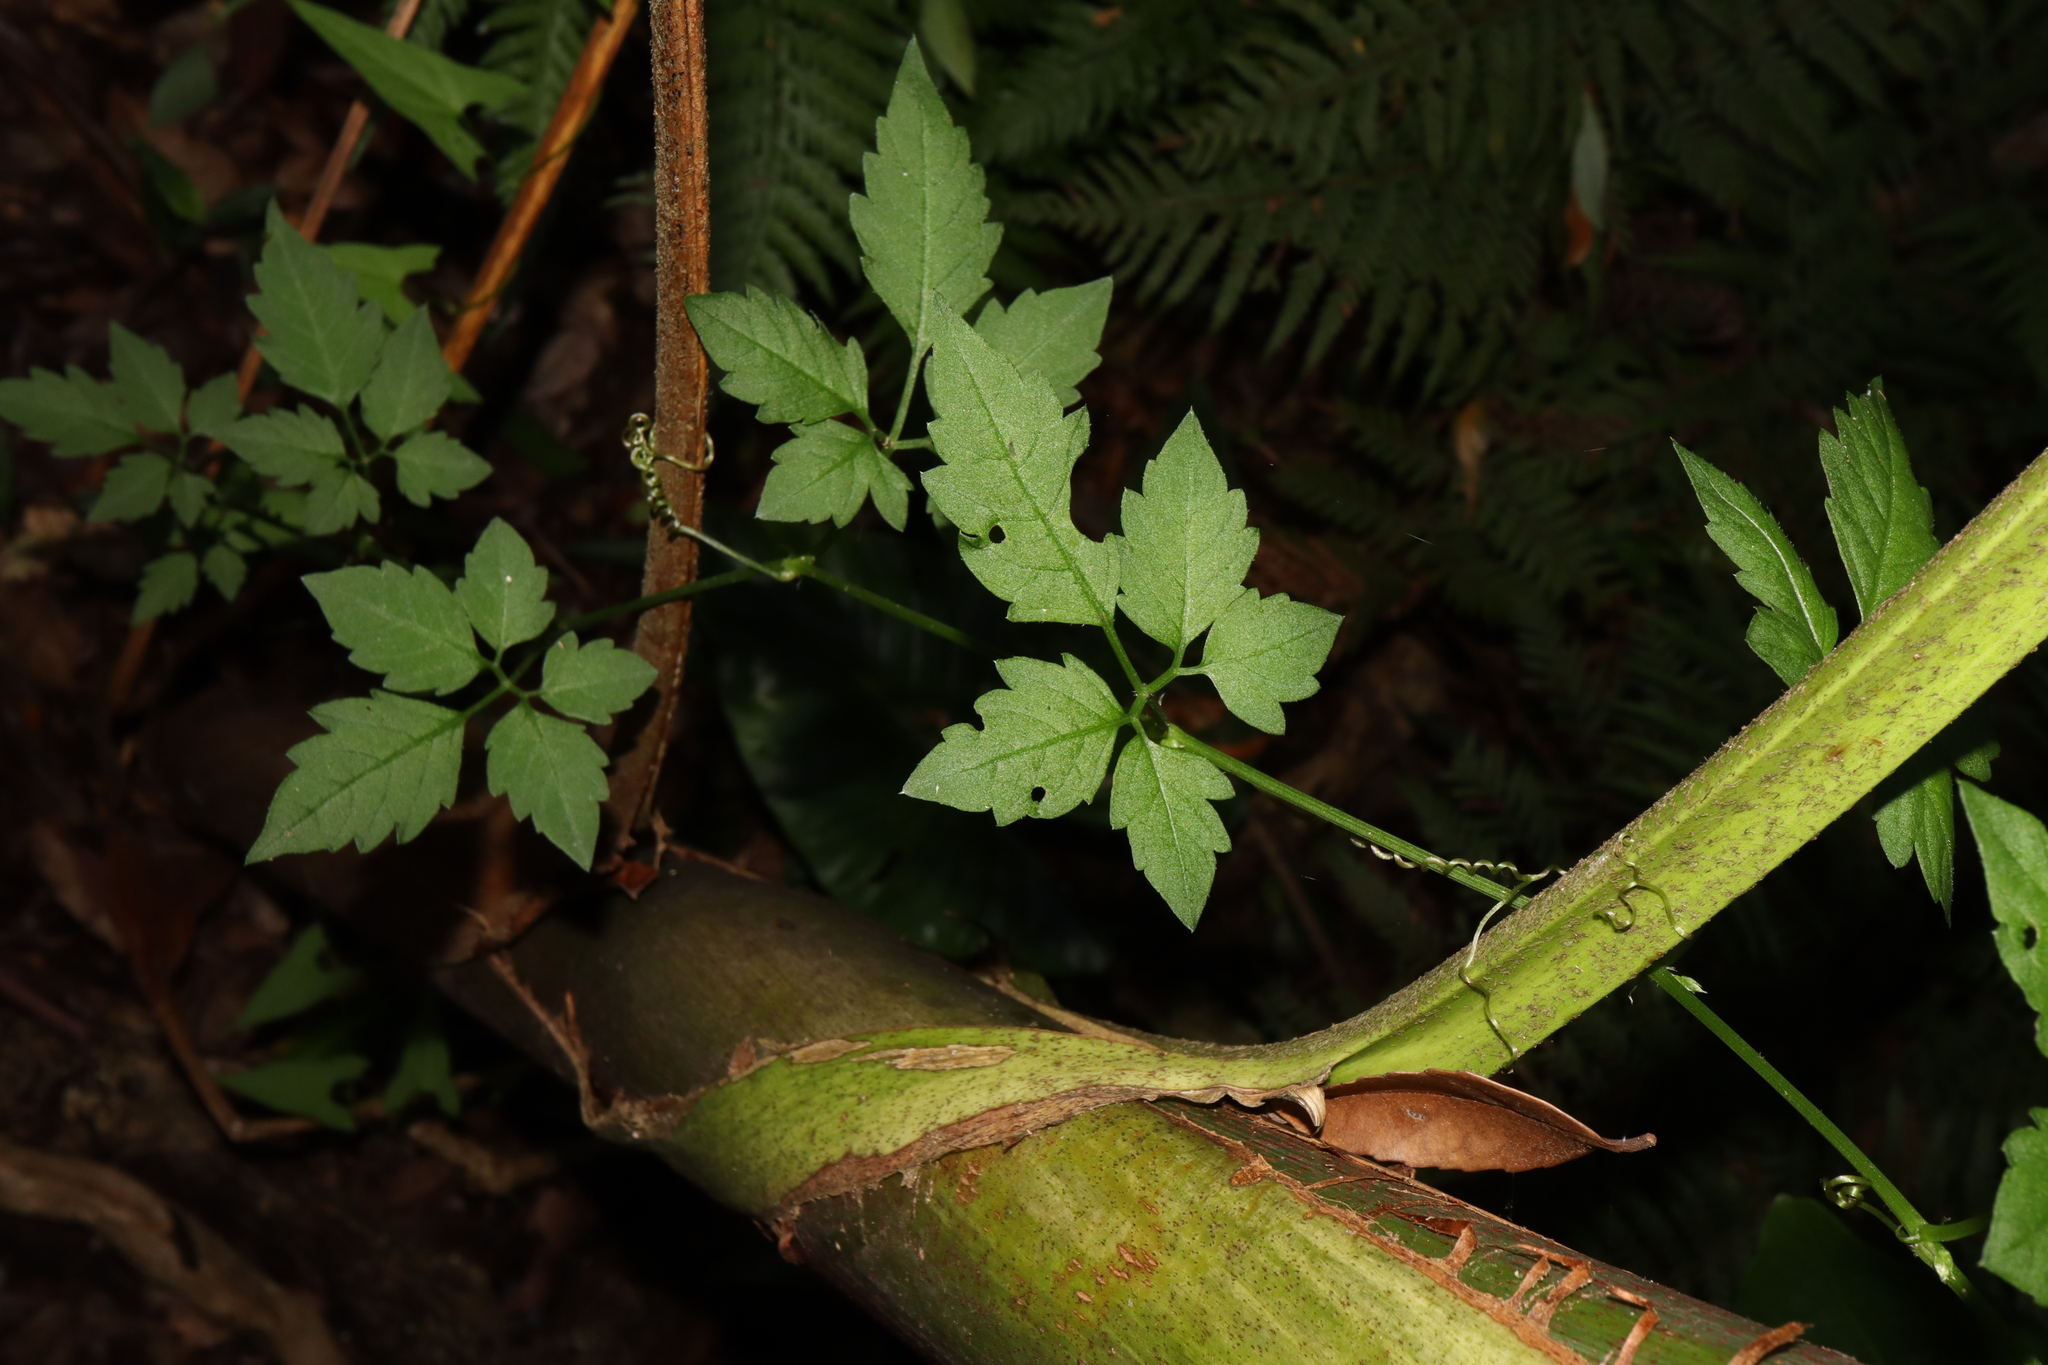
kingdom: Plantae
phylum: Tracheophyta
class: Magnoliopsida
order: Vitales
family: Vitaceae
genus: Causonis
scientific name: Causonis clematidea
